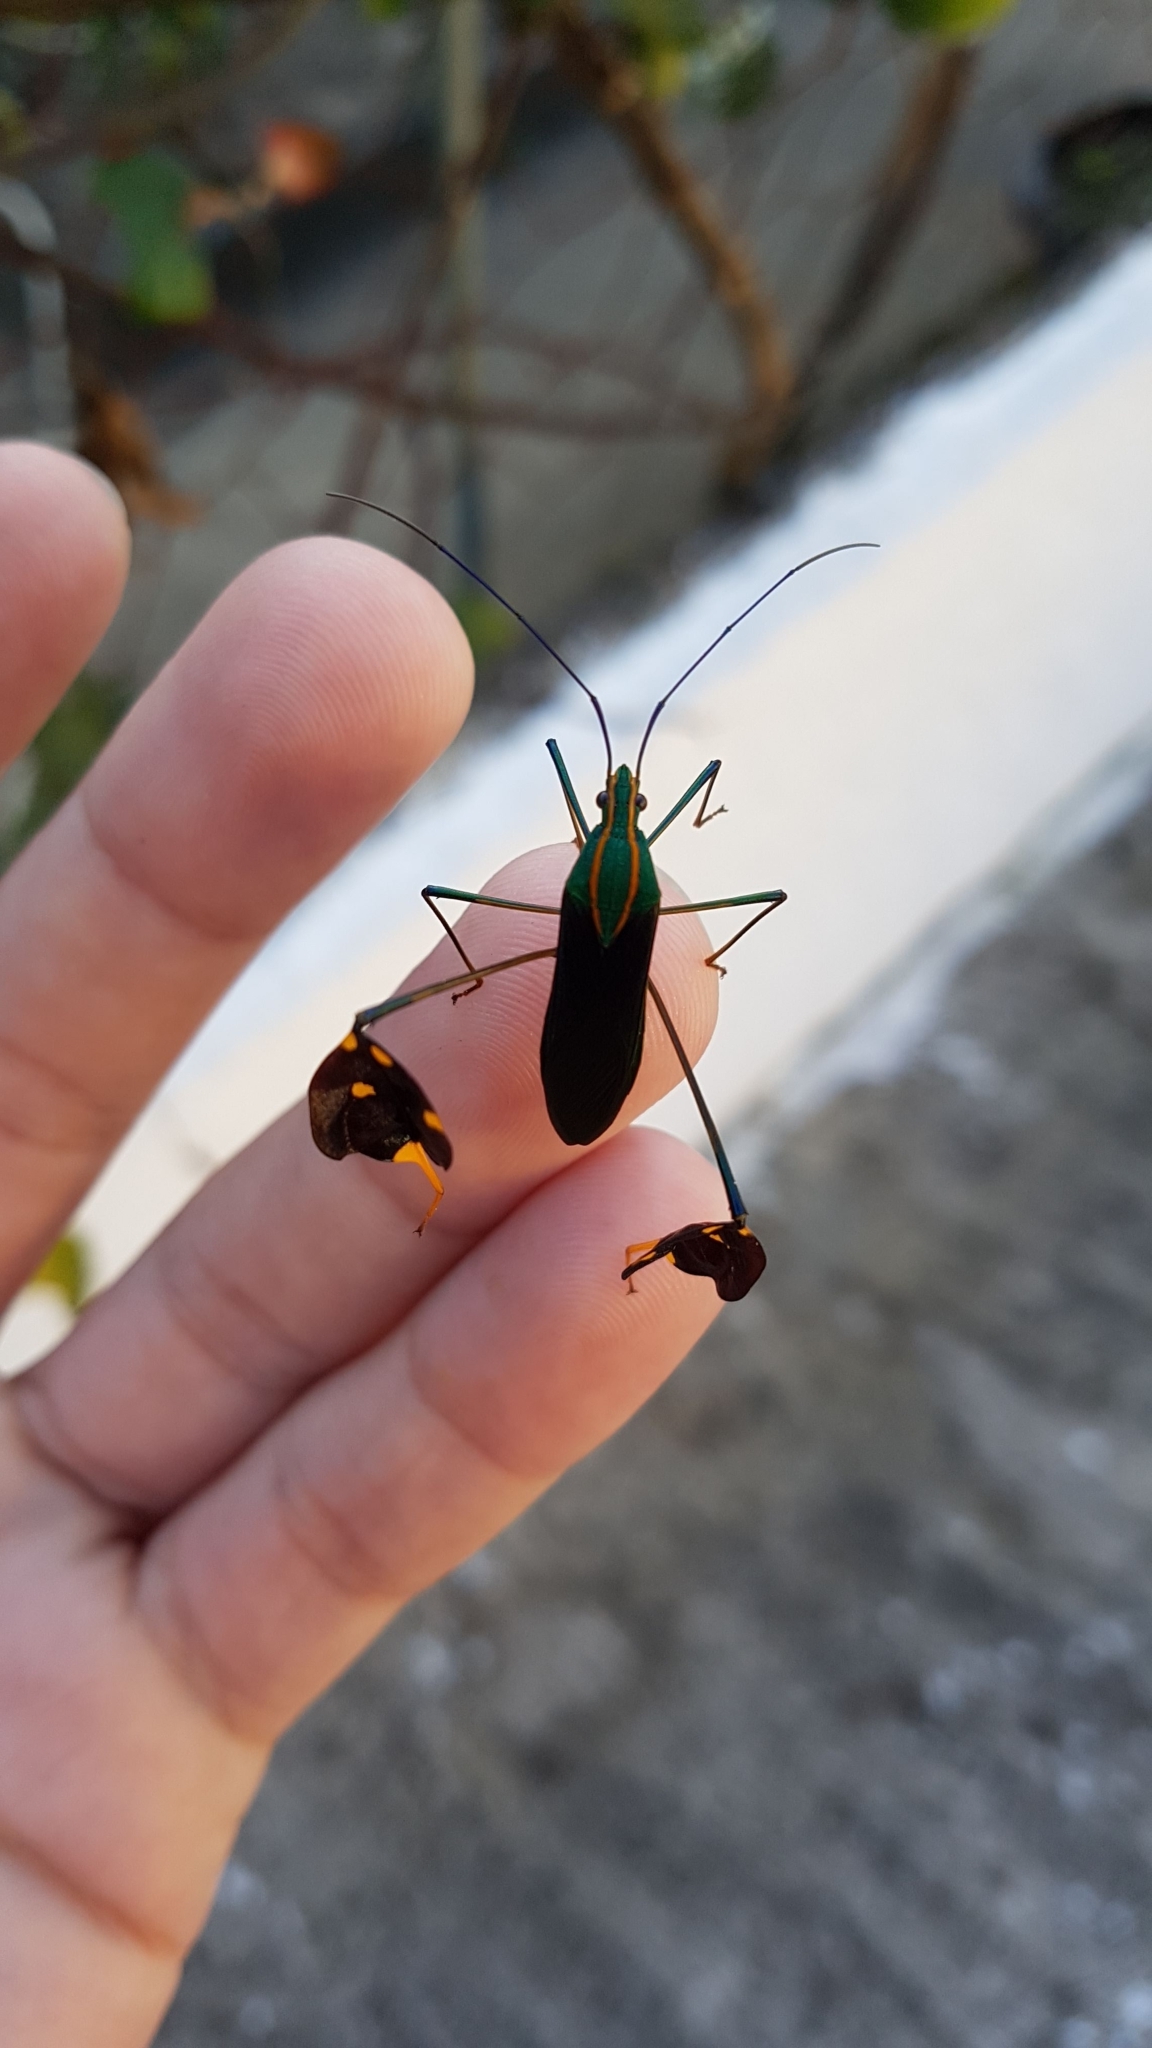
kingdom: Animalia
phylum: Arthropoda
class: Insecta
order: Hemiptera
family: Coreidae
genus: Diactor
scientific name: Diactor bilineatus
